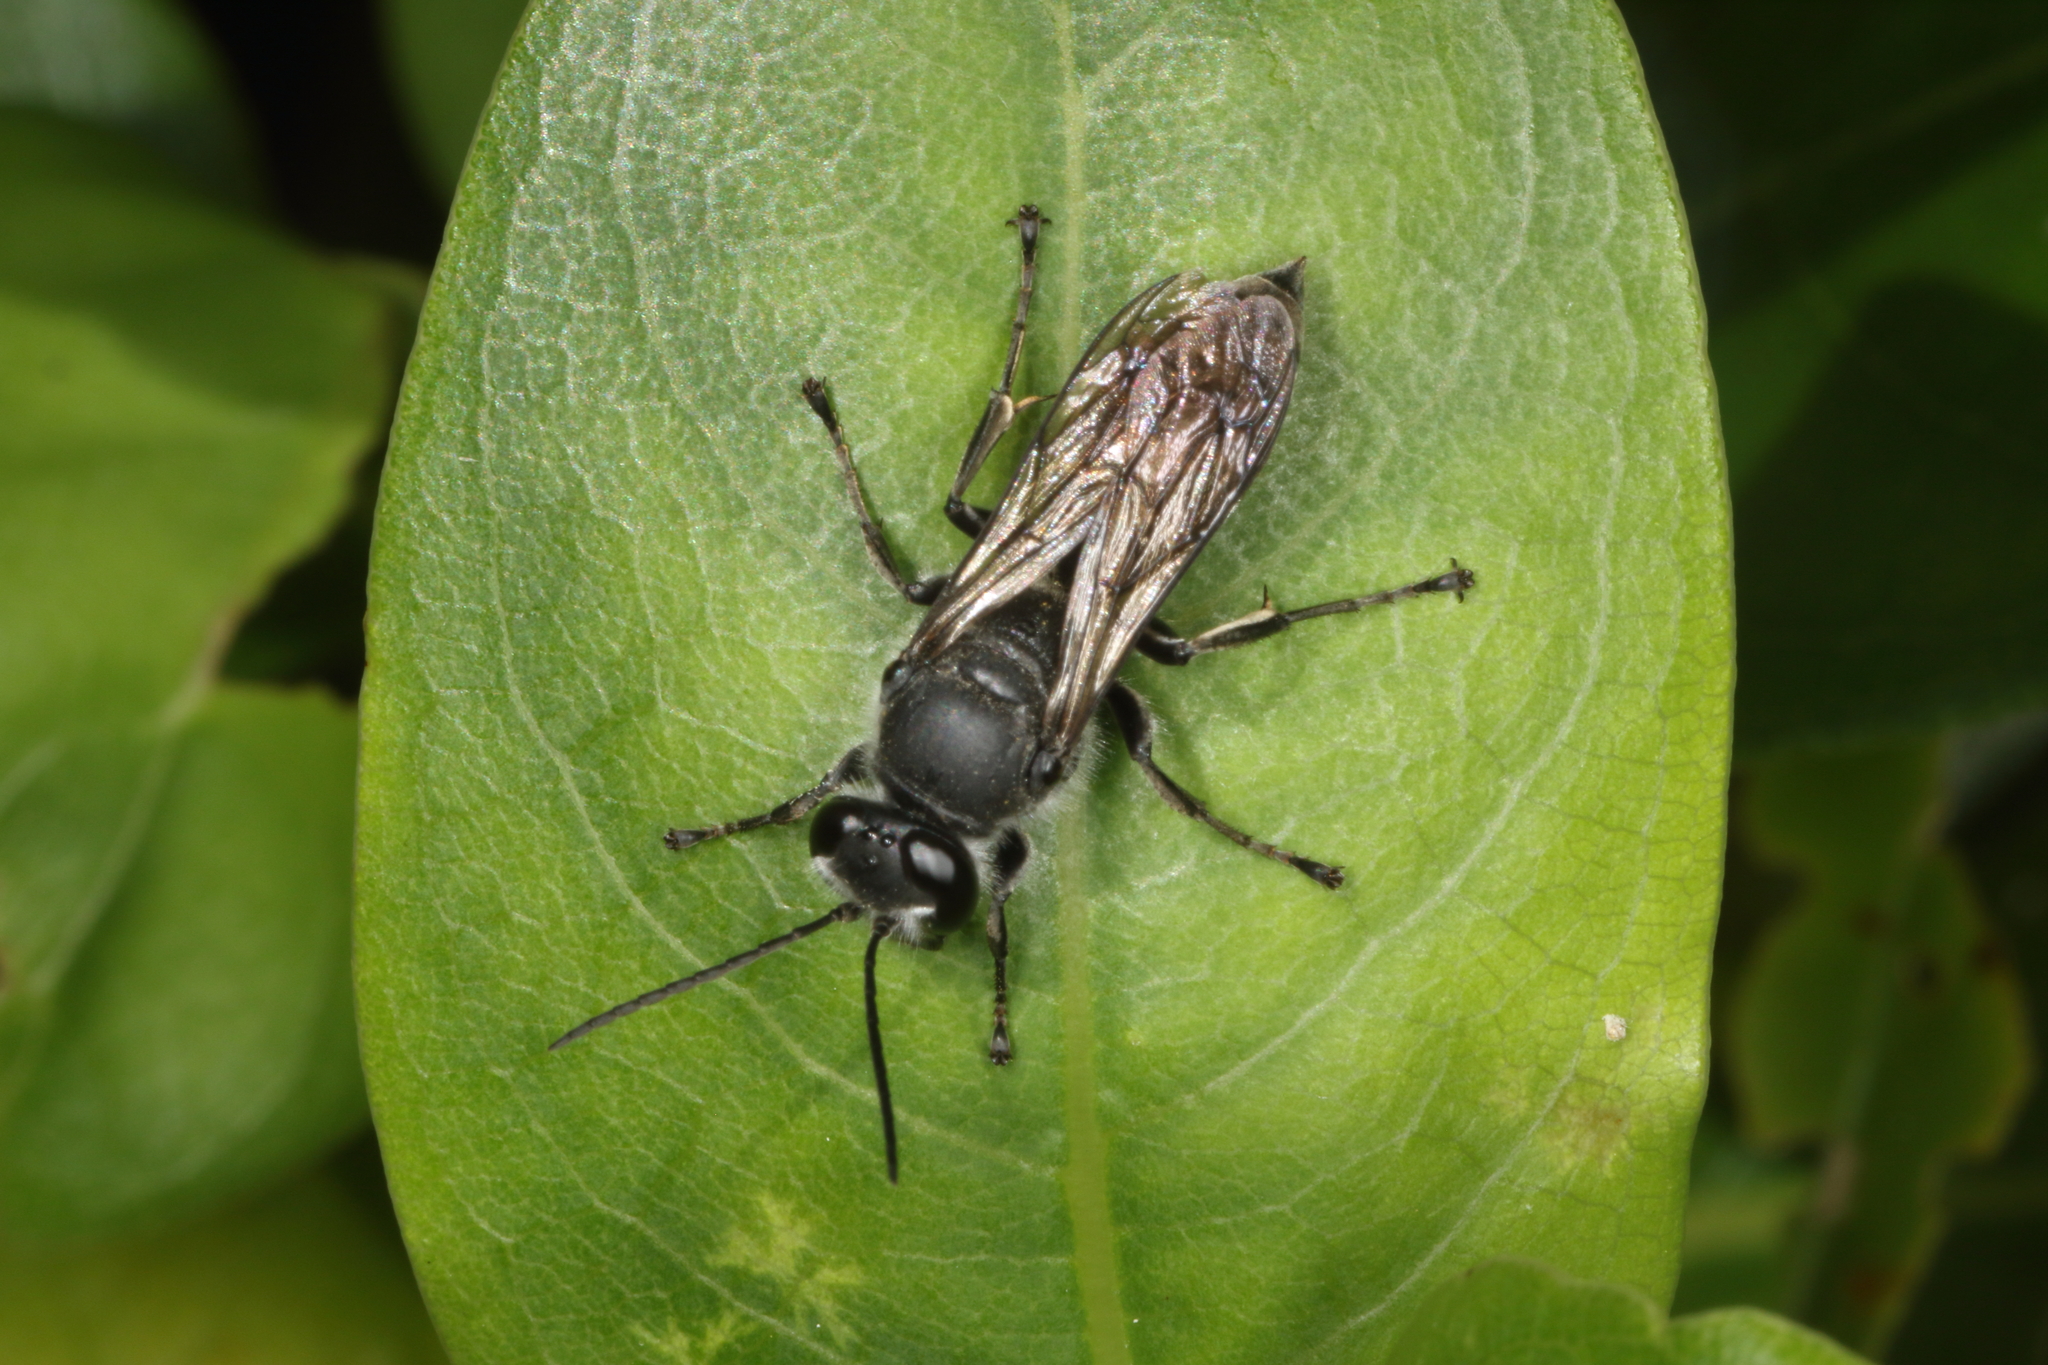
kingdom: Animalia
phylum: Arthropoda
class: Insecta
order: Hymenoptera
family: Crabronidae
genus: Pison
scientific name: Pison spinolae
